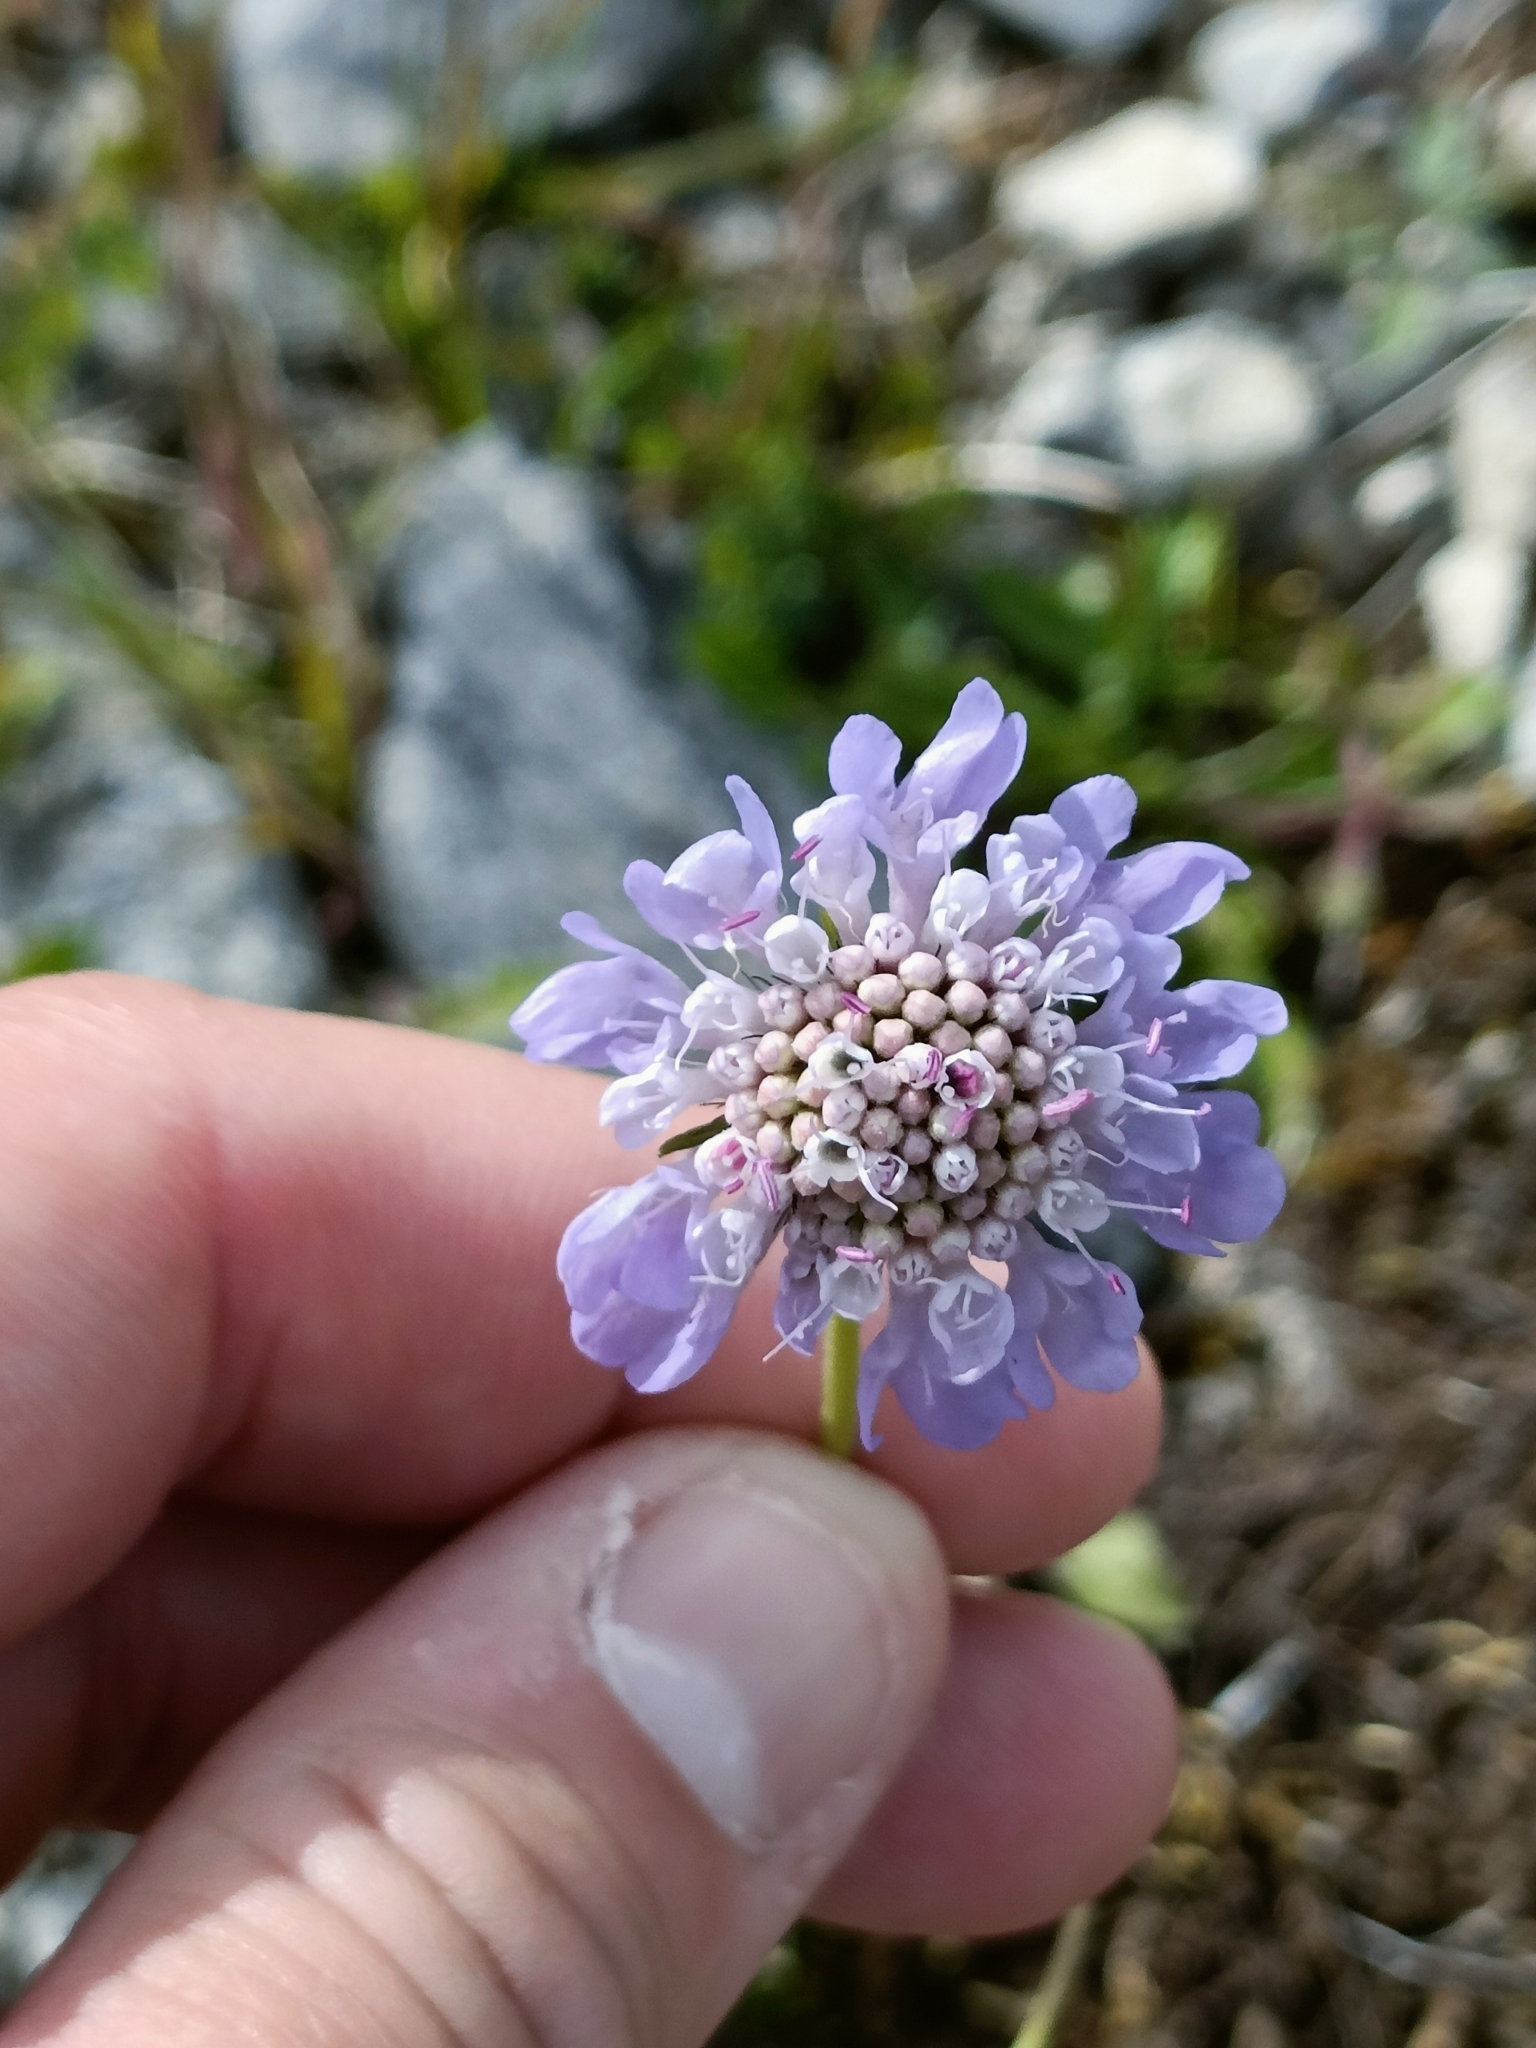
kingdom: Plantae
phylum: Tracheophyta
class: Magnoliopsida
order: Dipsacales
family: Caprifoliaceae
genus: Knautia
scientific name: Knautia arvensis
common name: Field scabiosa
